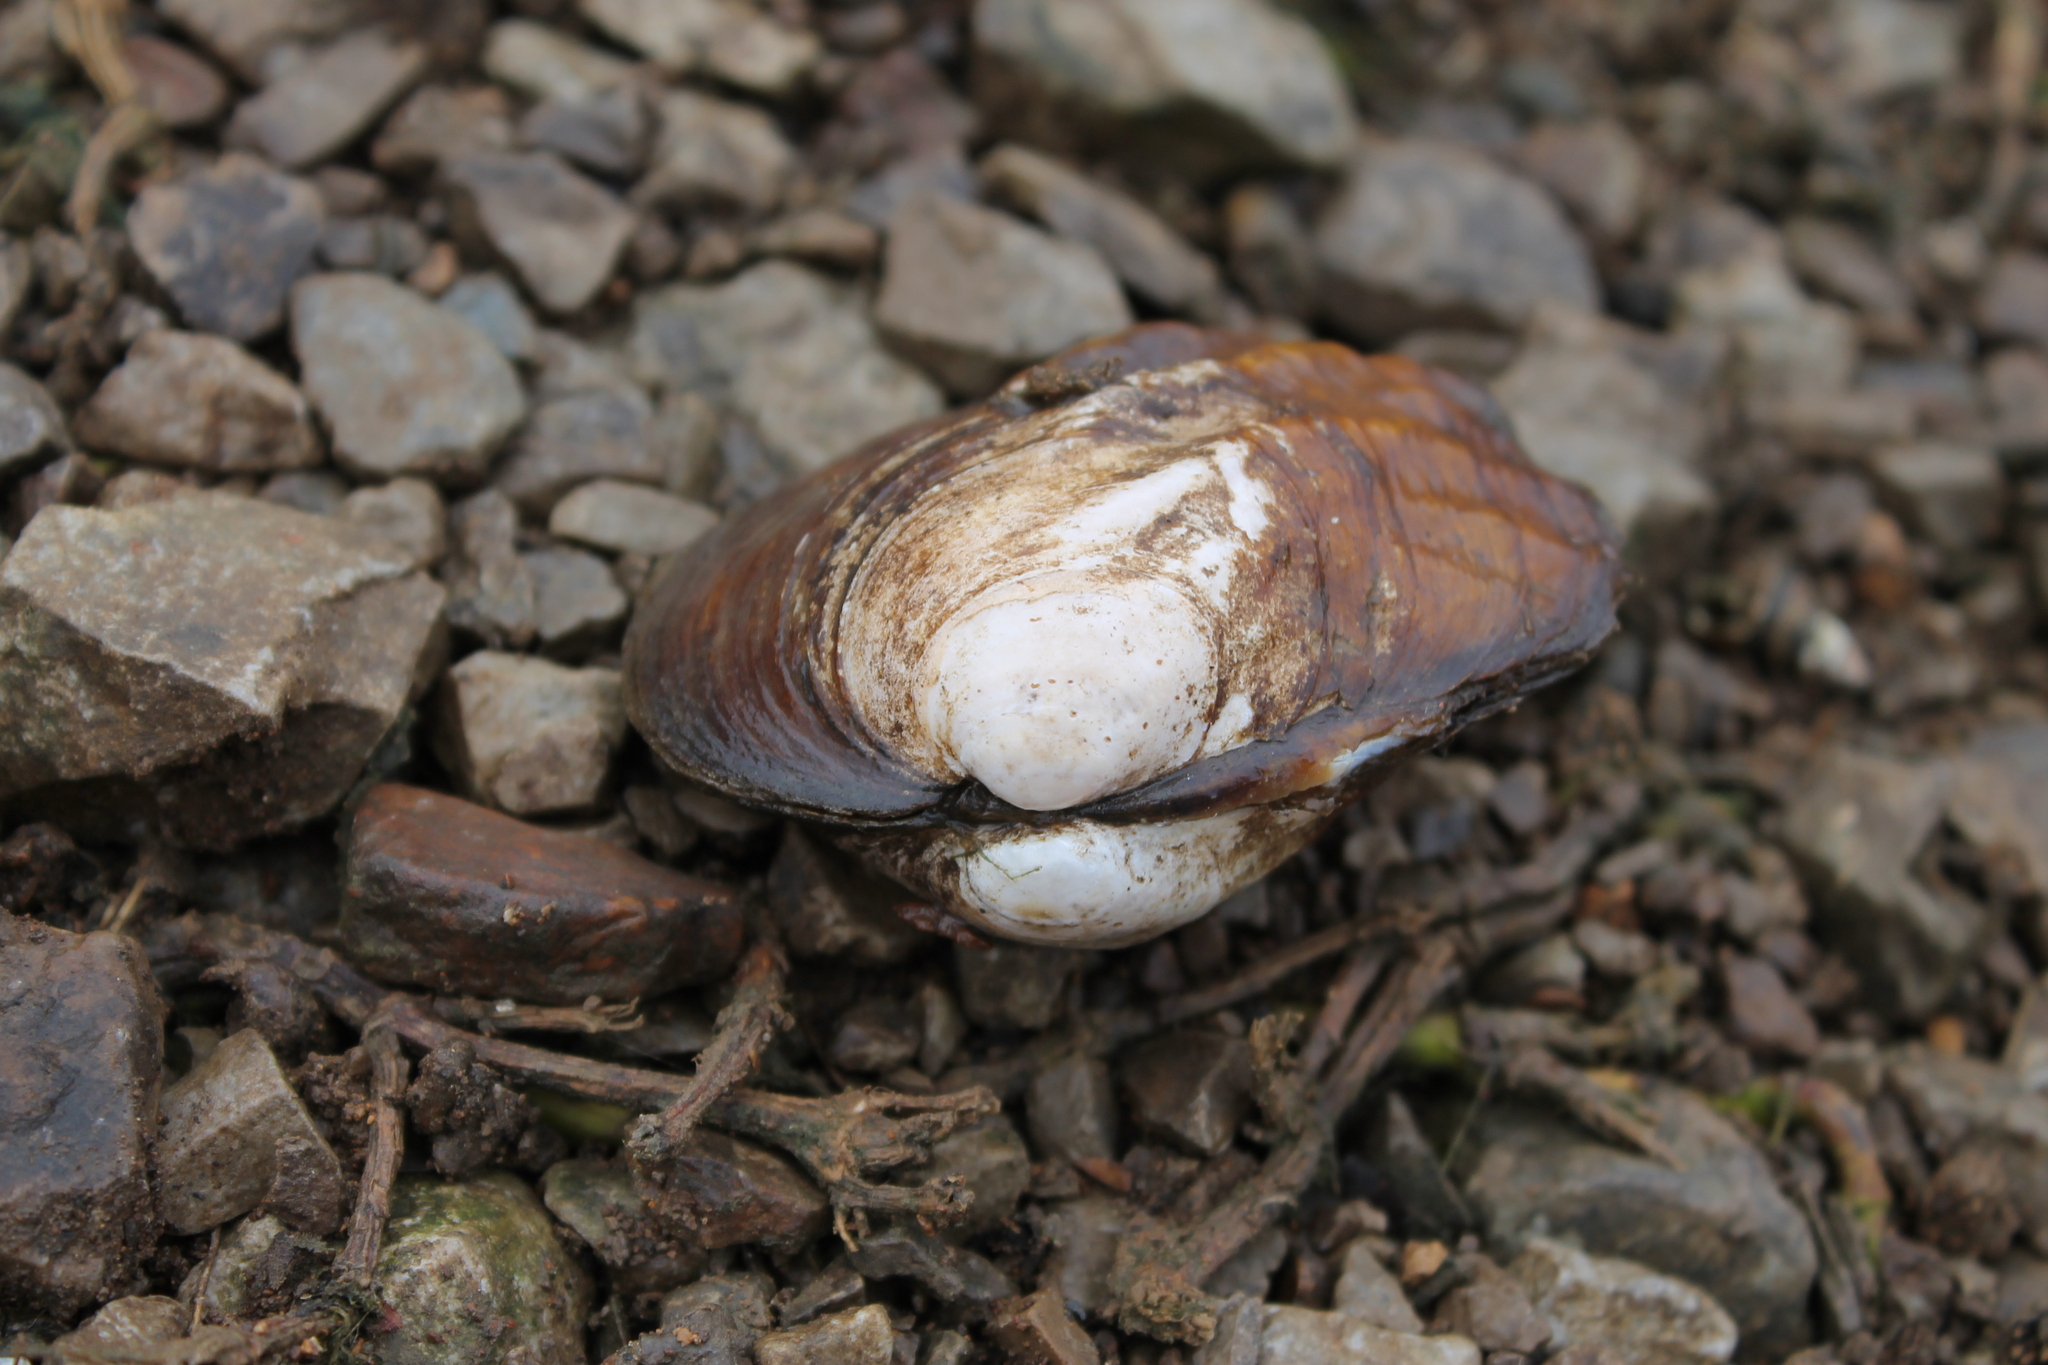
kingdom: Animalia
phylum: Mollusca
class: Bivalvia
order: Unionida
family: Unionidae
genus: Amblema
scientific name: Amblema plicata
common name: Threeridge
